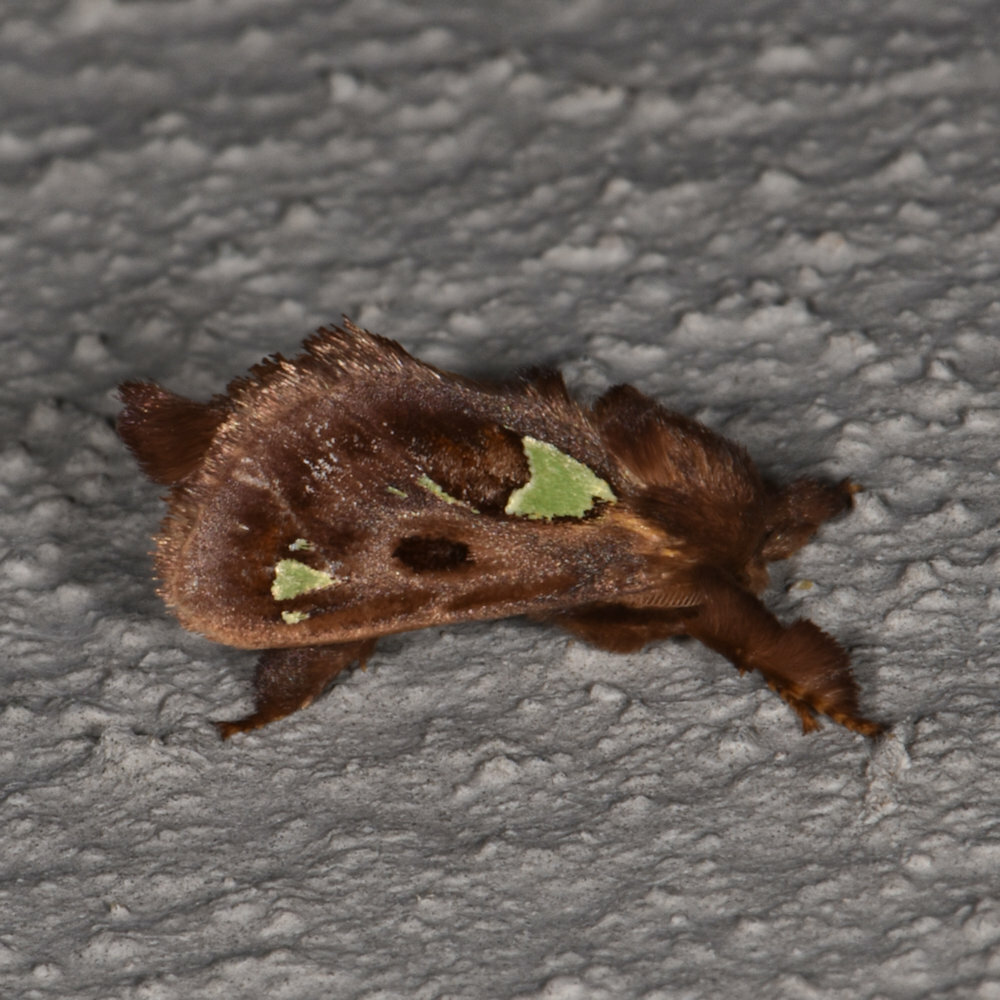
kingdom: Animalia
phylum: Arthropoda
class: Insecta
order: Lepidoptera
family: Limacodidae
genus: Euclea
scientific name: Euclea delphinii
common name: Spiny oak-slug moth
